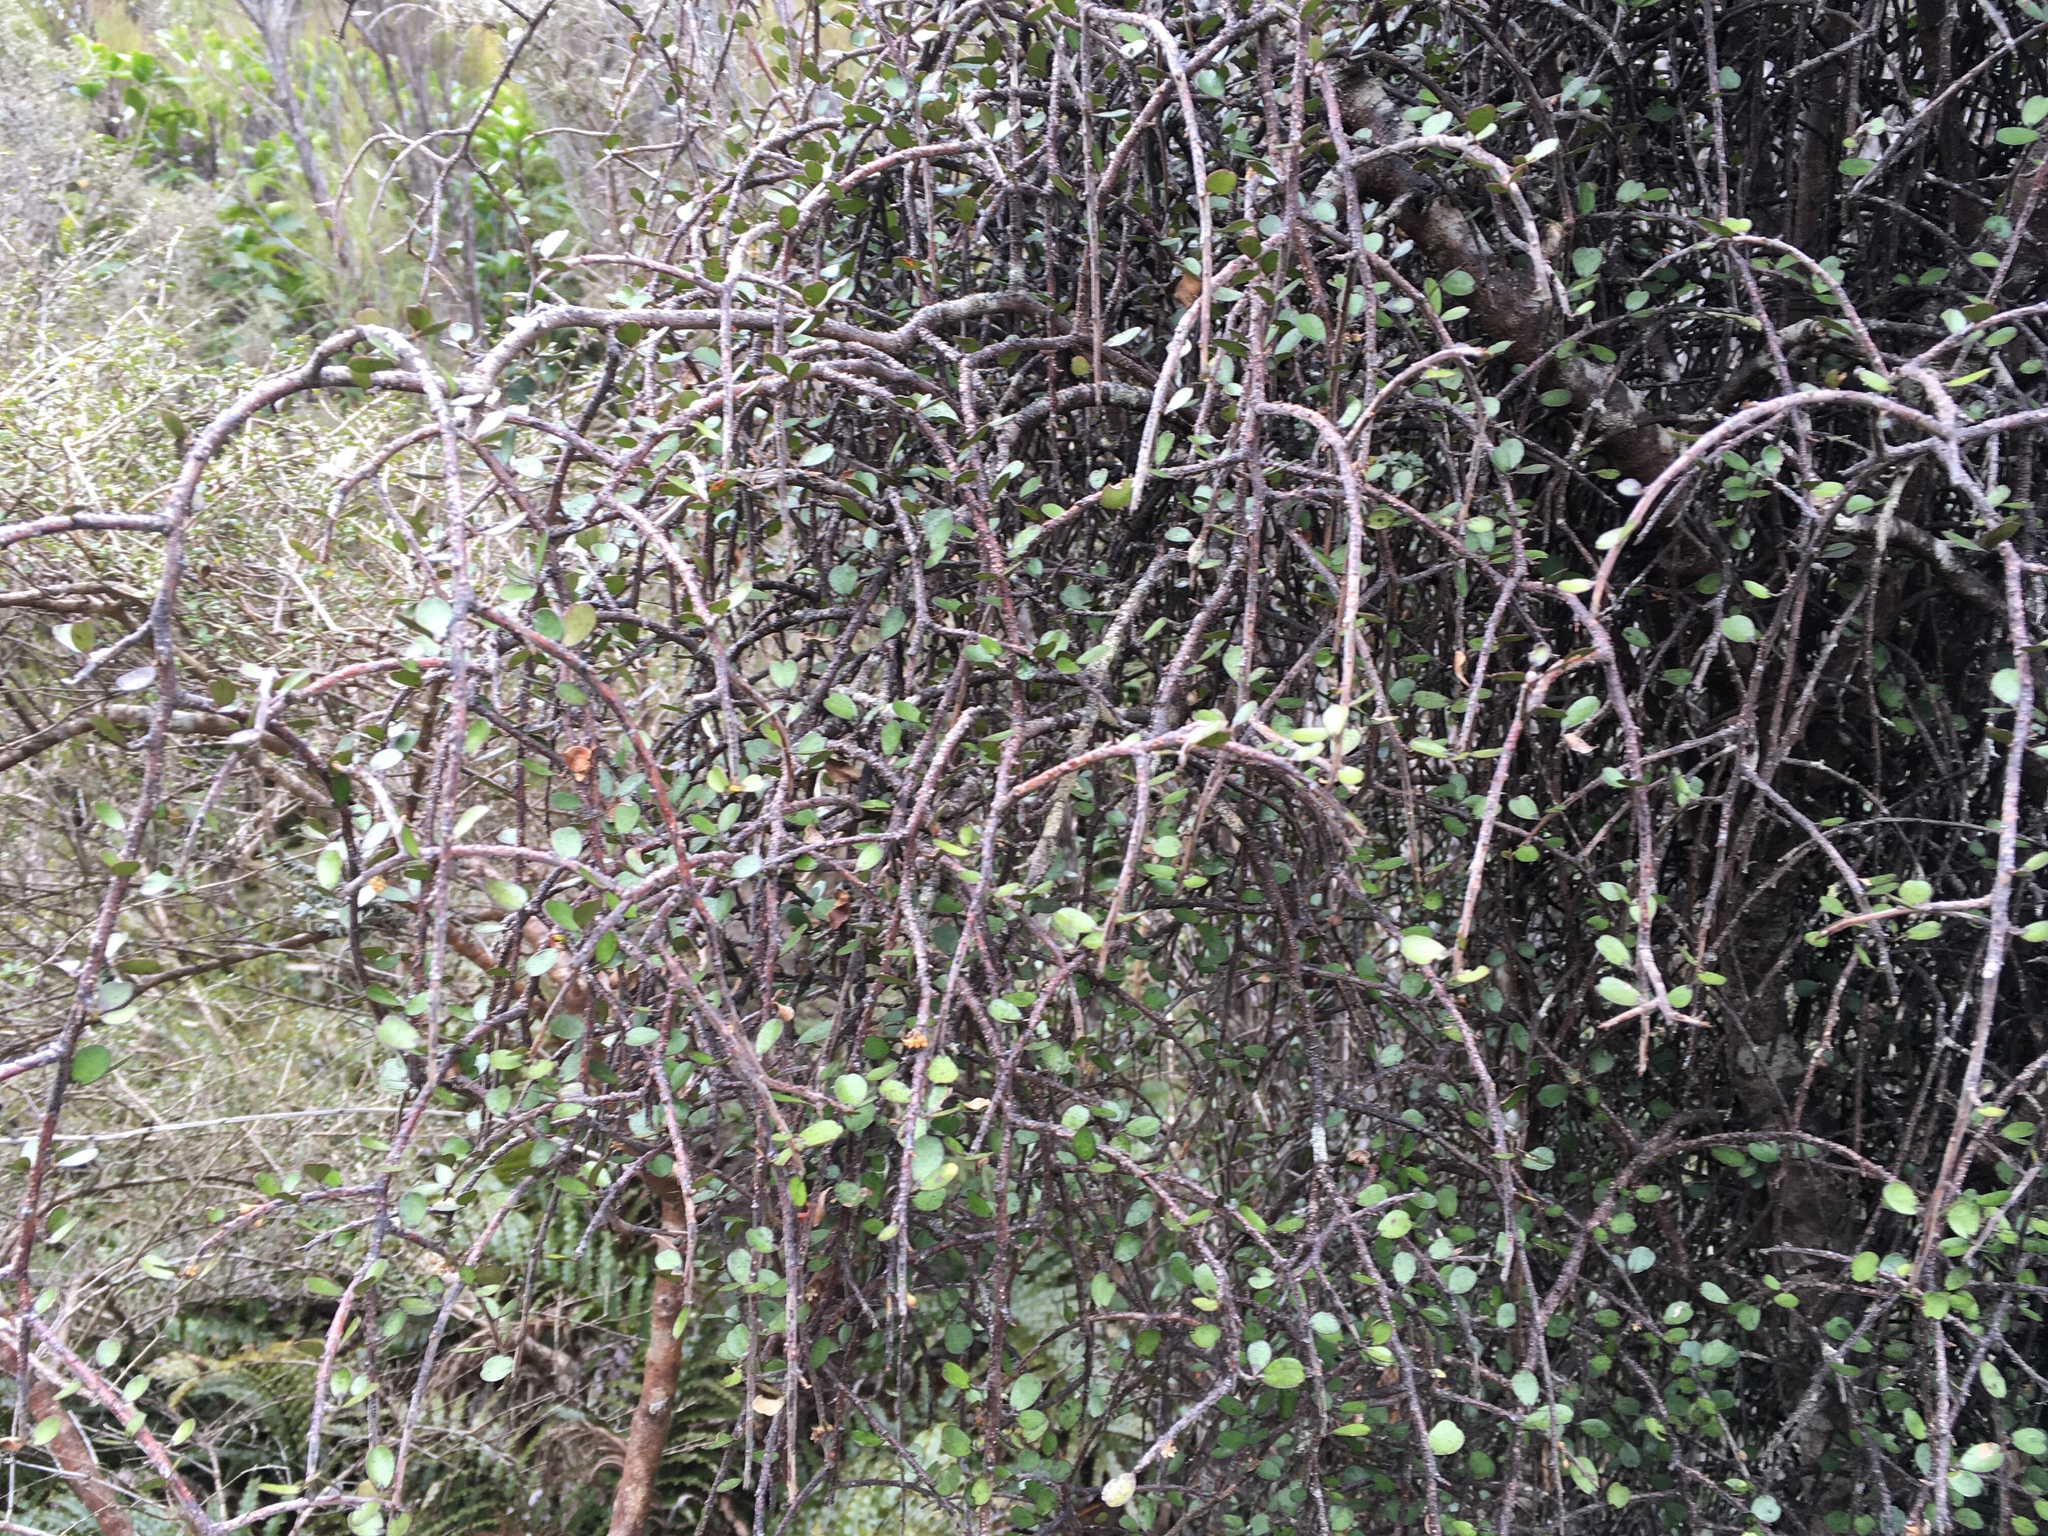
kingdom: Plantae
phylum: Tracheophyta
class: Magnoliopsida
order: Ericales
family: Primulaceae
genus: Myrsine
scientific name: Myrsine divaricata
